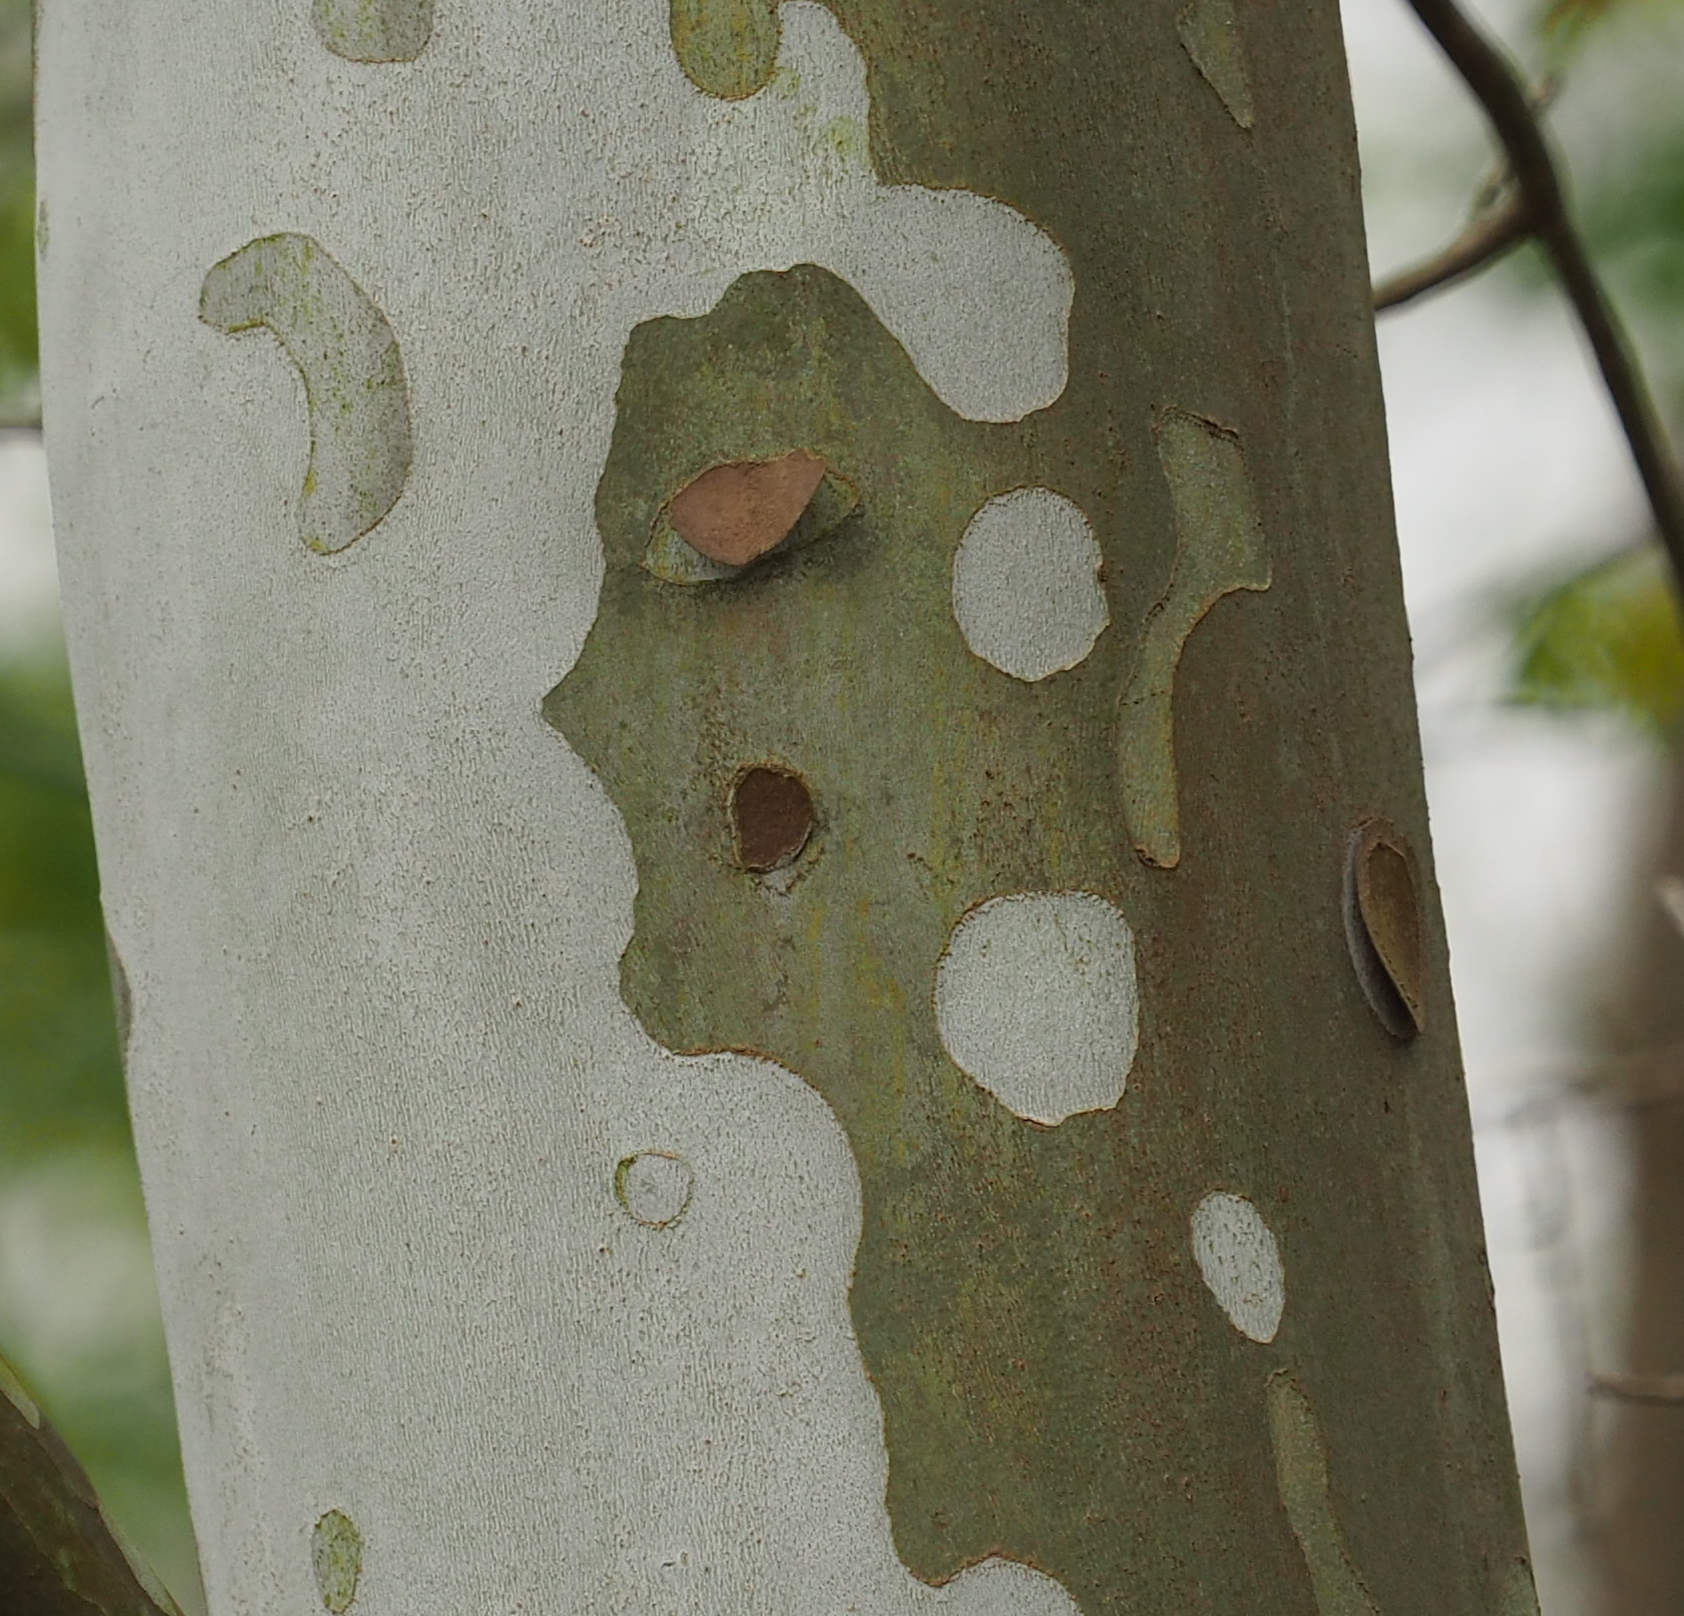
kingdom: Plantae
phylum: Tracheophyta
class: Magnoliopsida
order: Proteales
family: Platanaceae
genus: Platanus
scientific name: Platanus occidentalis
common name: American sycamore
